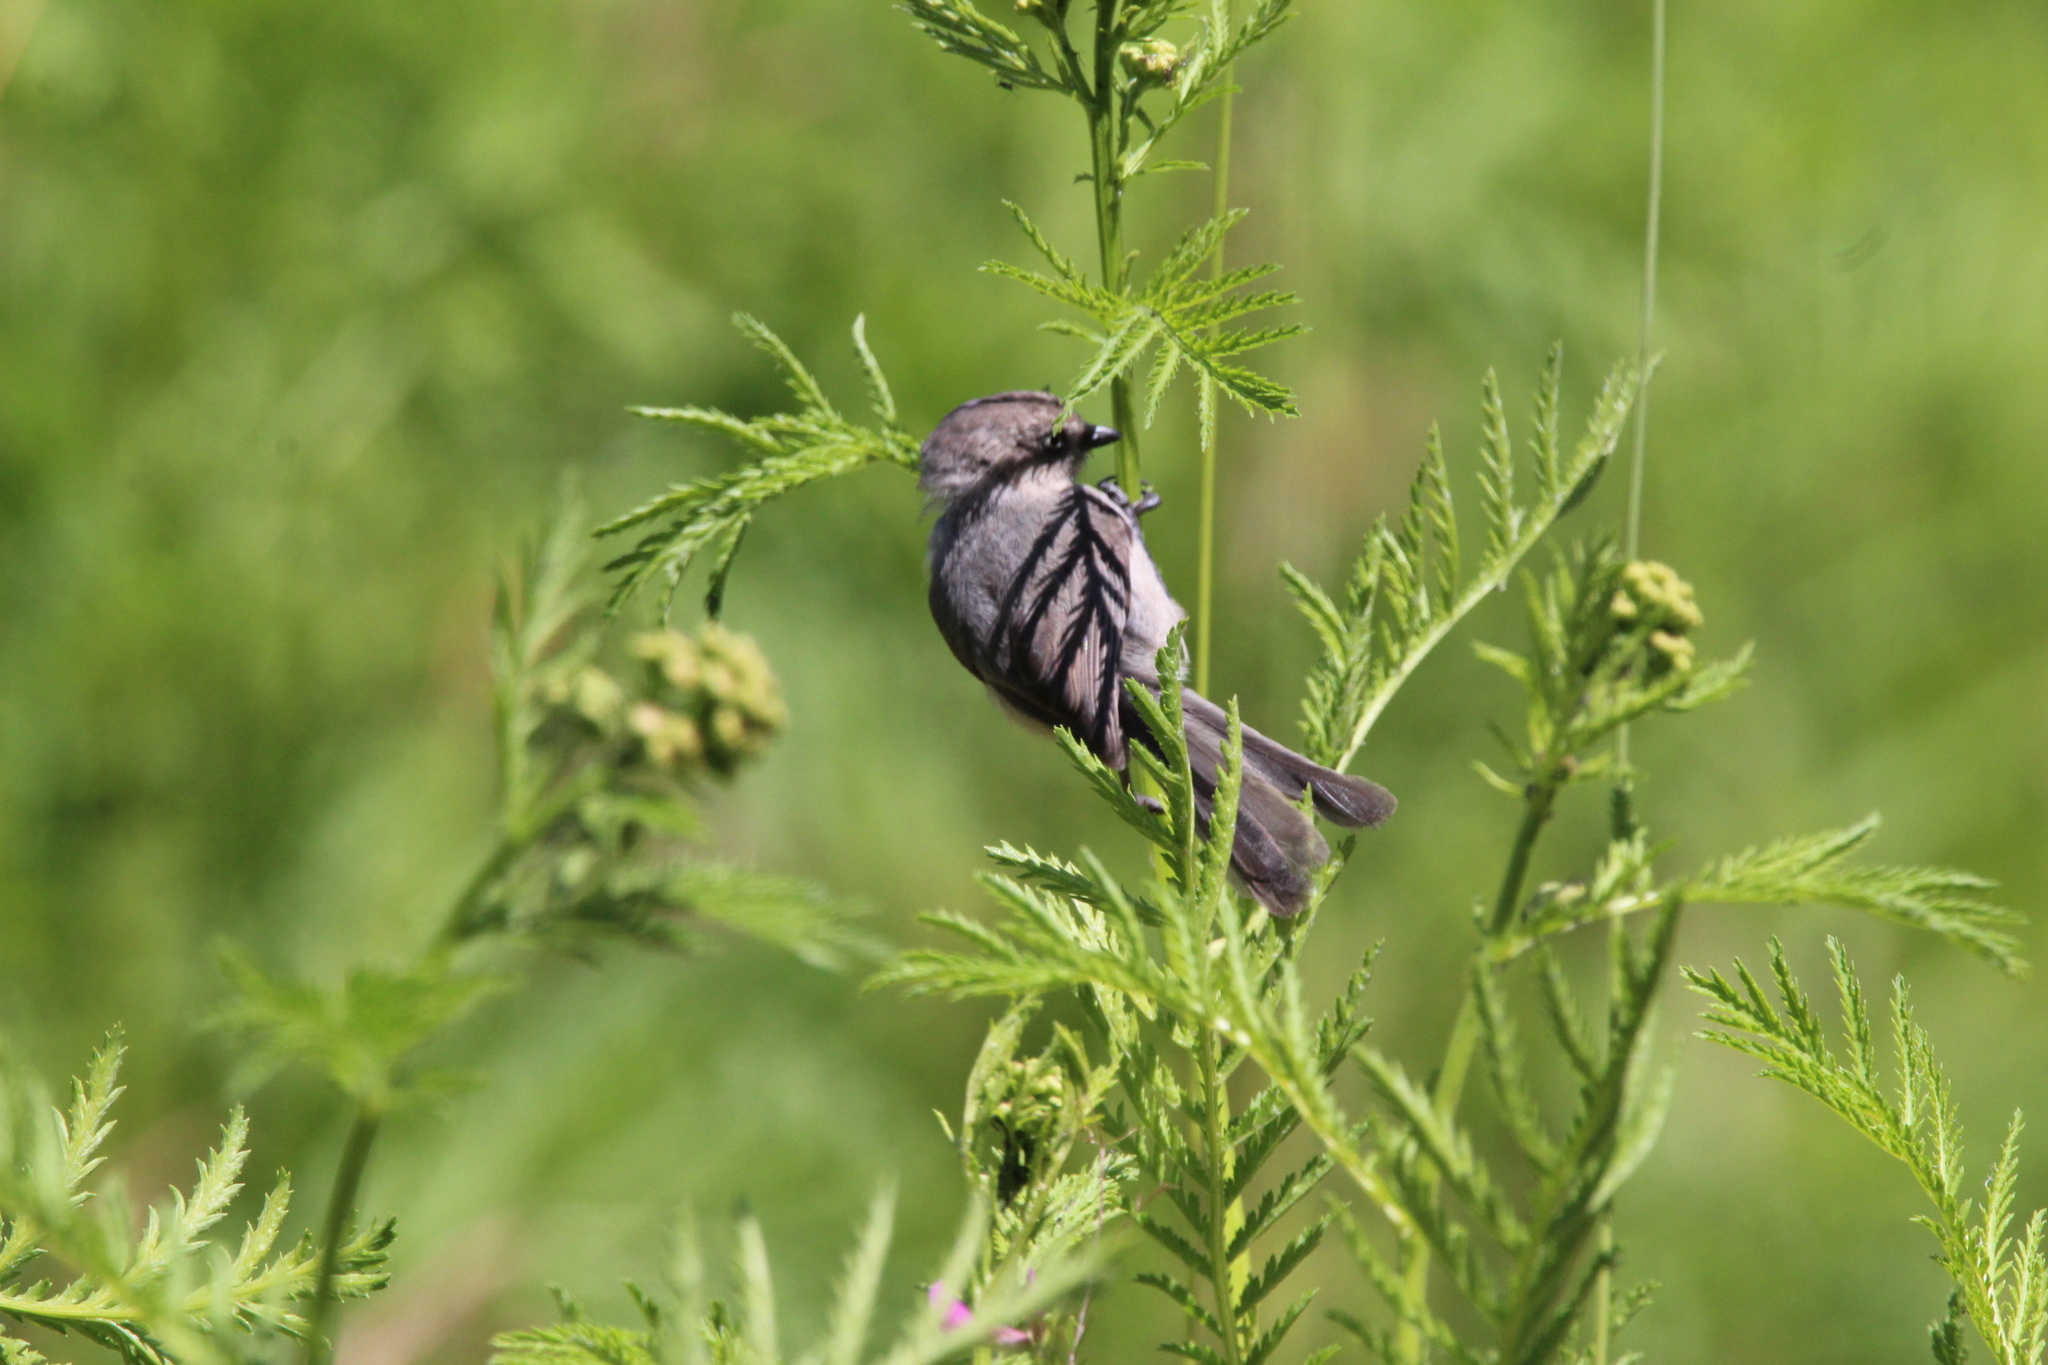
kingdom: Animalia
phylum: Chordata
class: Aves
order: Passeriformes
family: Aegithalidae
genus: Psaltriparus
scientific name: Psaltriparus minimus
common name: American bushtit
